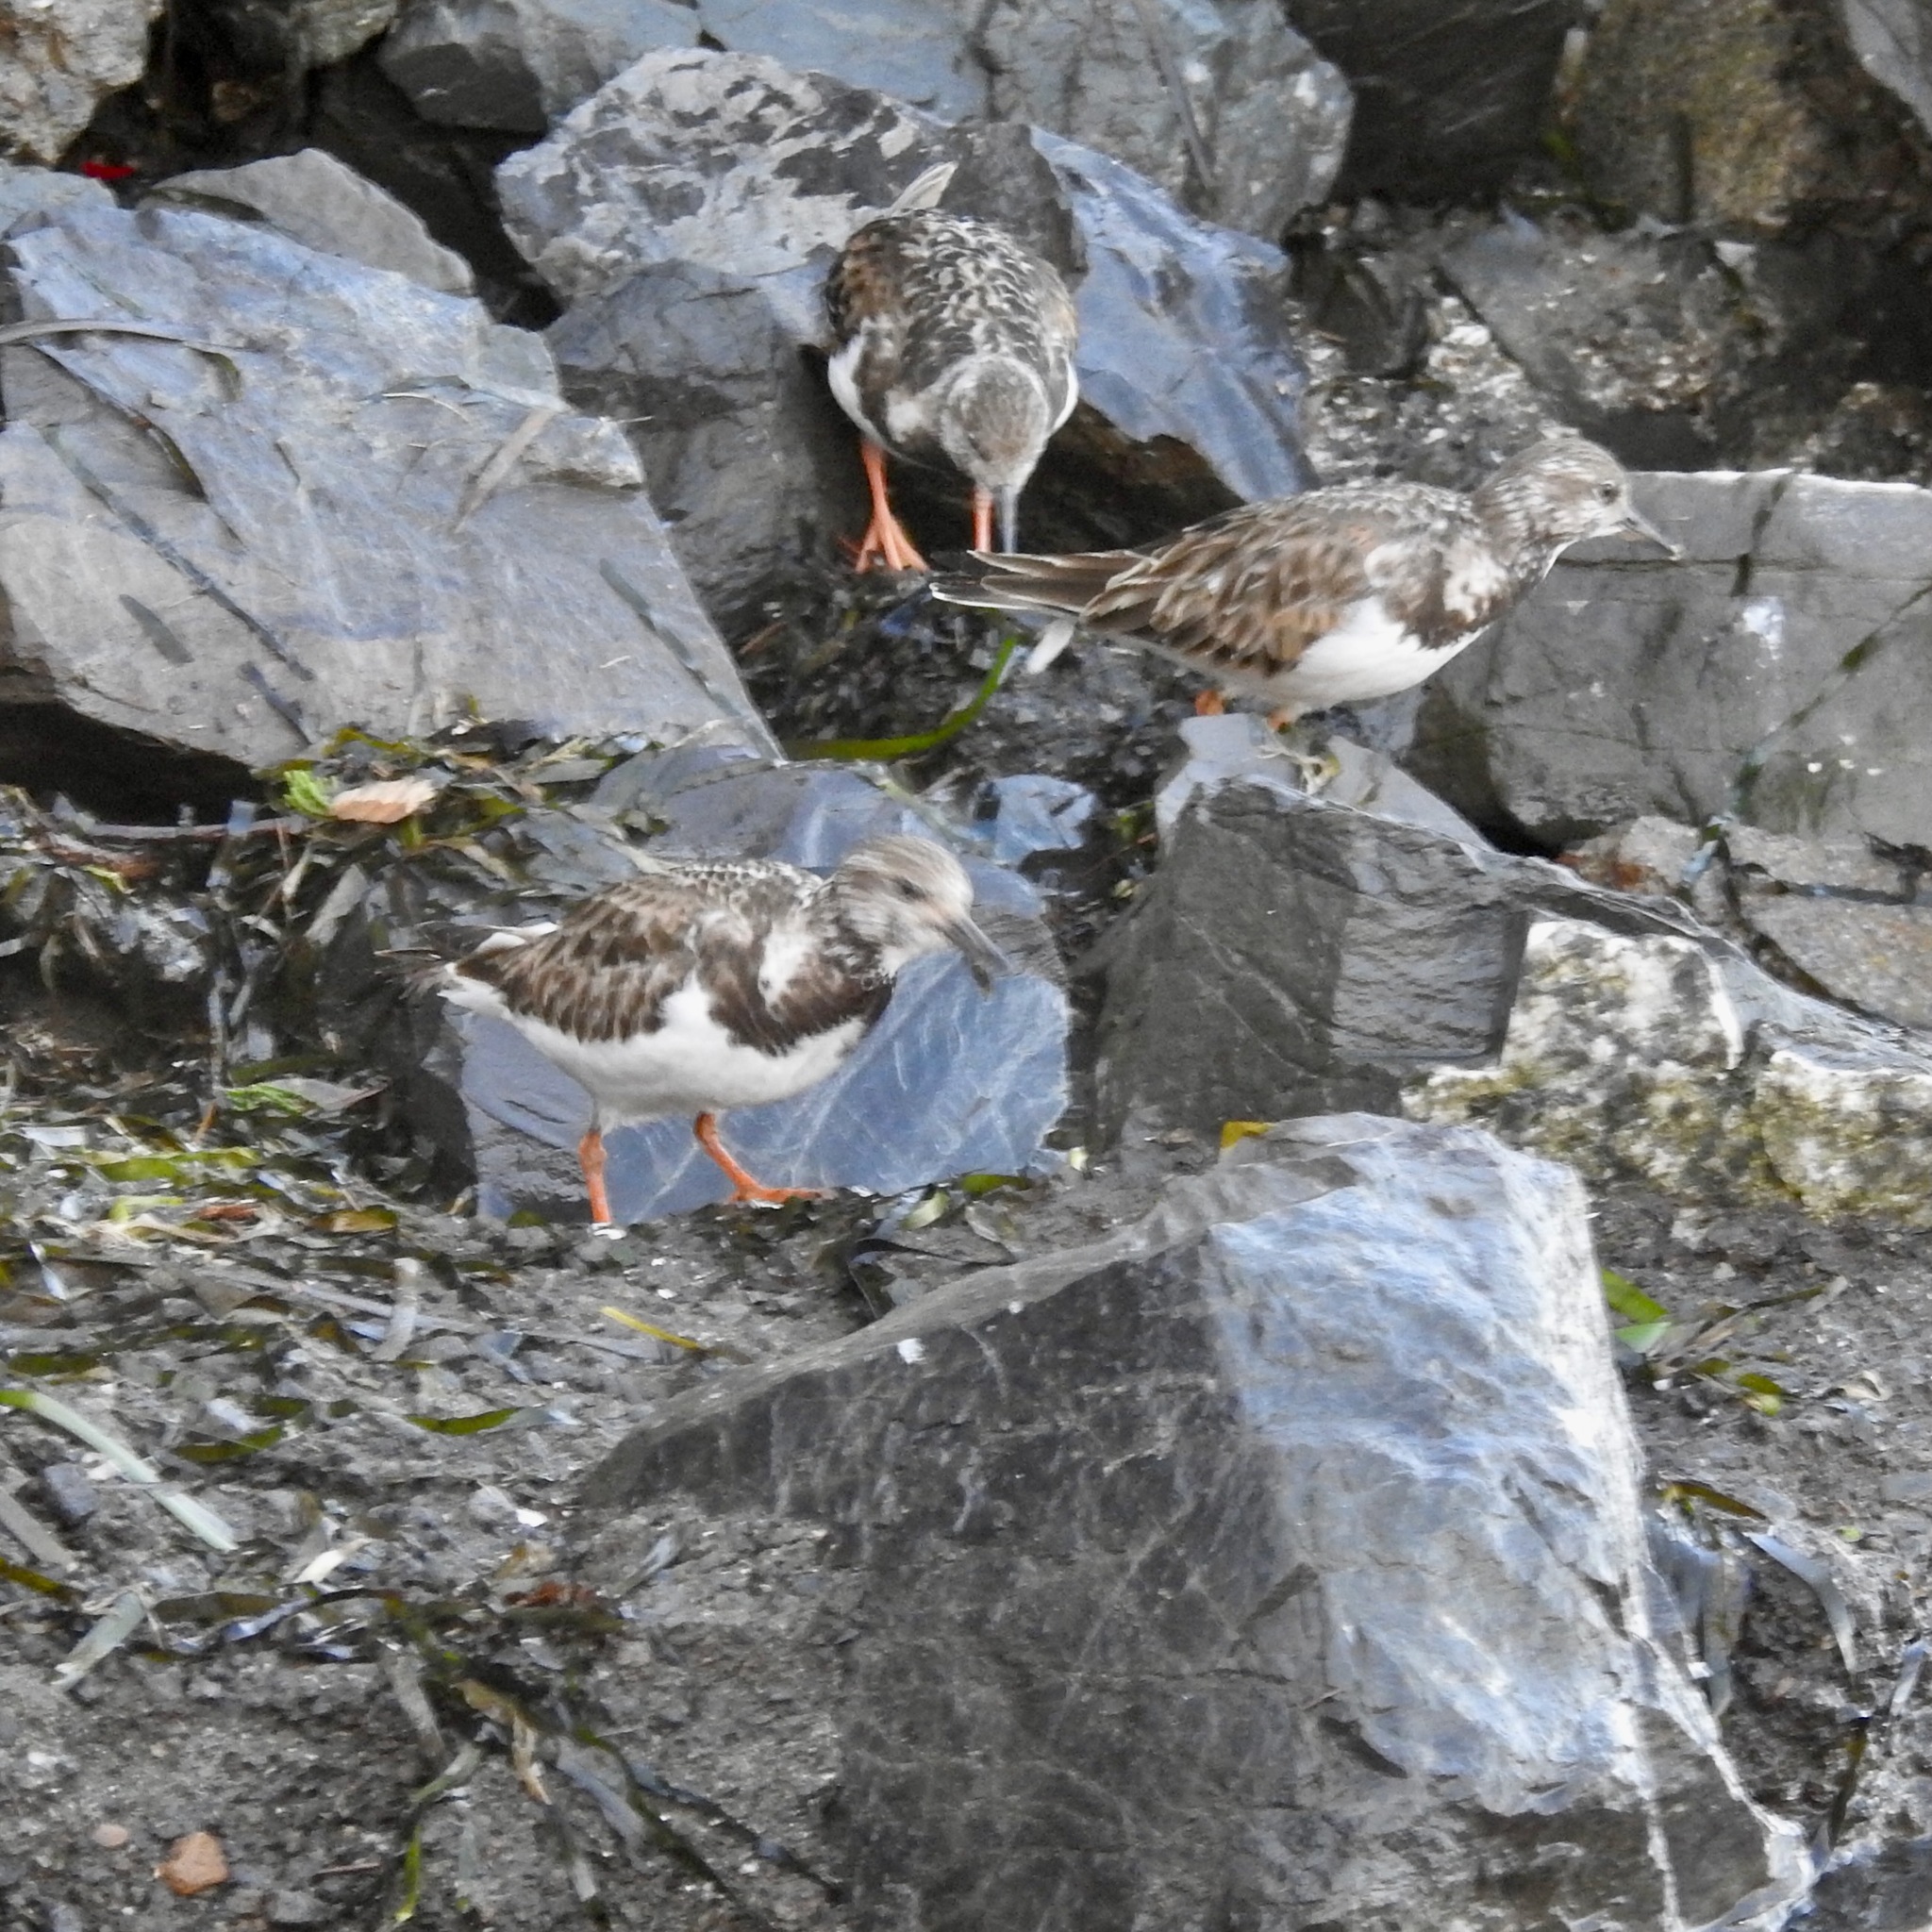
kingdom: Animalia
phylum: Chordata
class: Aves
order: Charadriiformes
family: Scolopacidae
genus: Arenaria
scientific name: Arenaria interpres
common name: Ruddy turnstone
